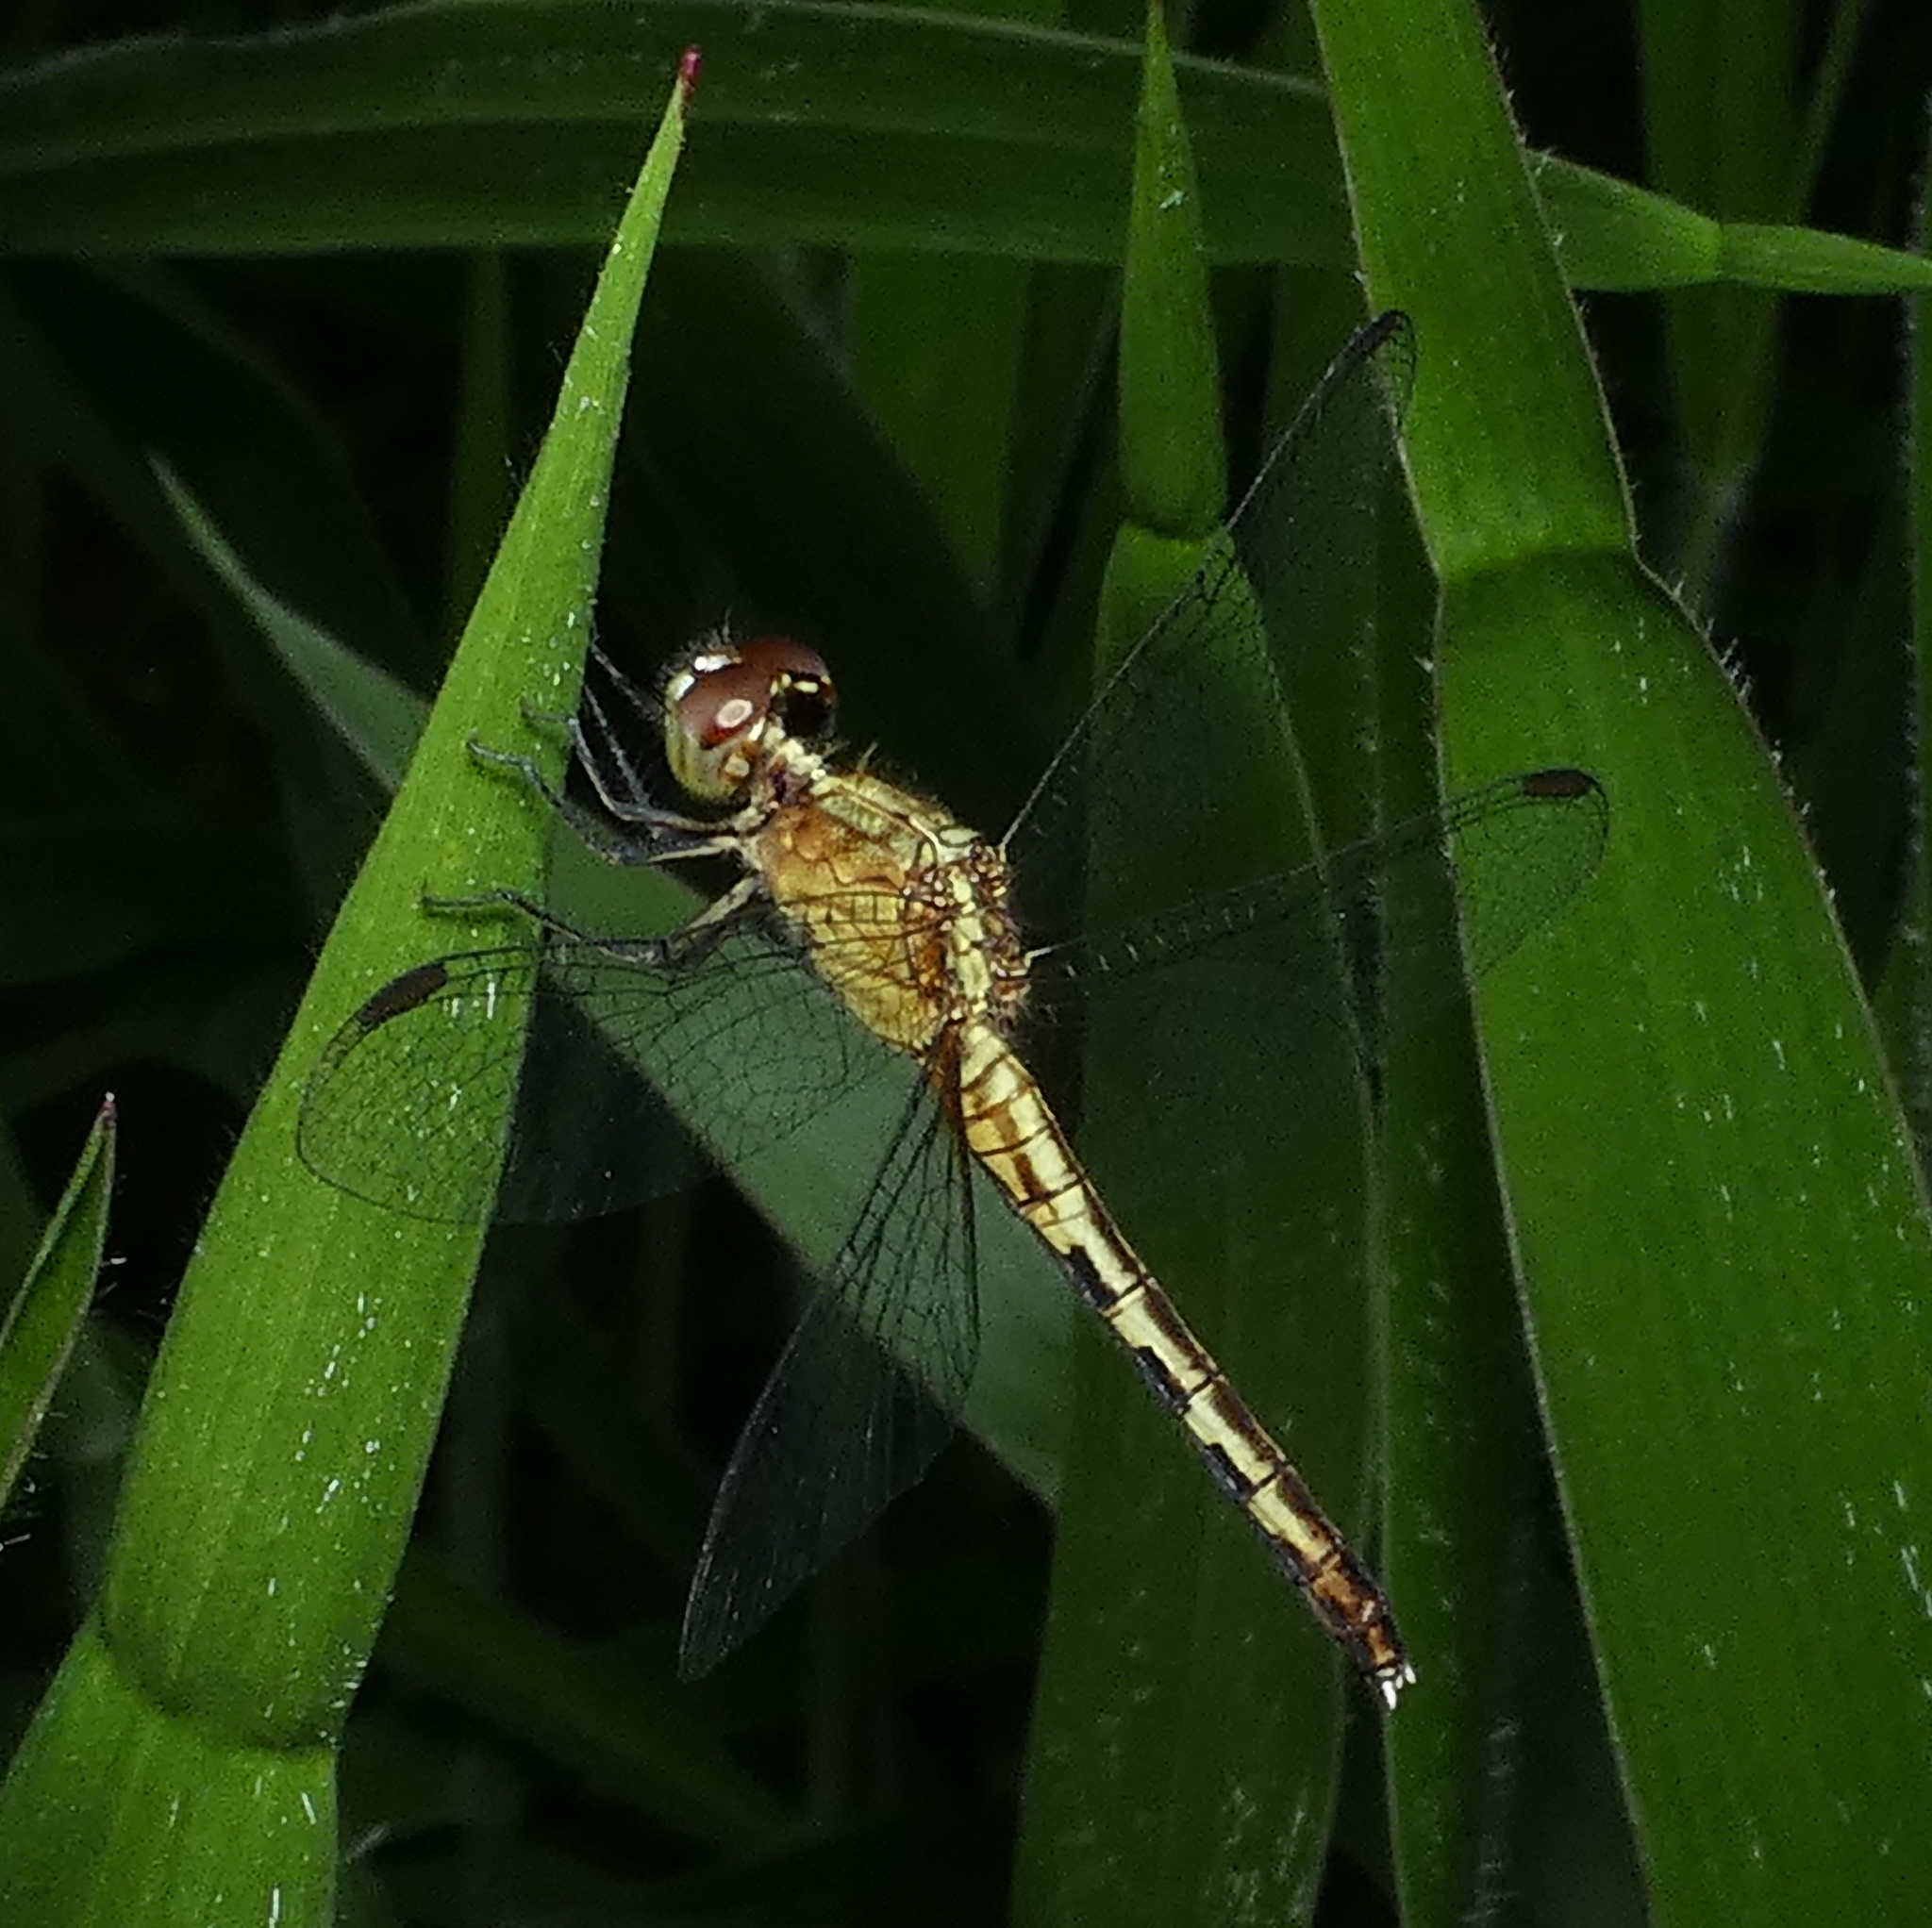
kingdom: Animalia
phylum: Arthropoda
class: Insecta
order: Odonata
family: Libellulidae
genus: Erythrodiplax
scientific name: Erythrodiplax umbrata
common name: Band-winged dragonlet
